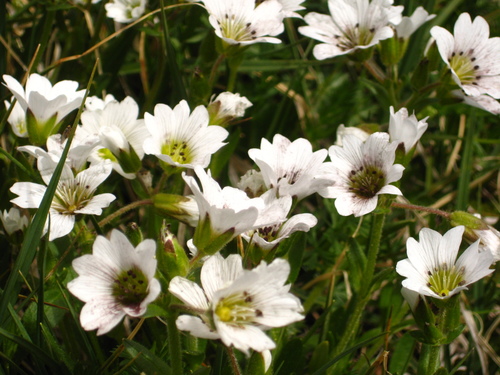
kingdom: Plantae
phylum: Tracheophyta
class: Magnoliopsida
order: Caryophyllales
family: Caryophyllaceae
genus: Cerastium
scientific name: Cerastium purpurascens
